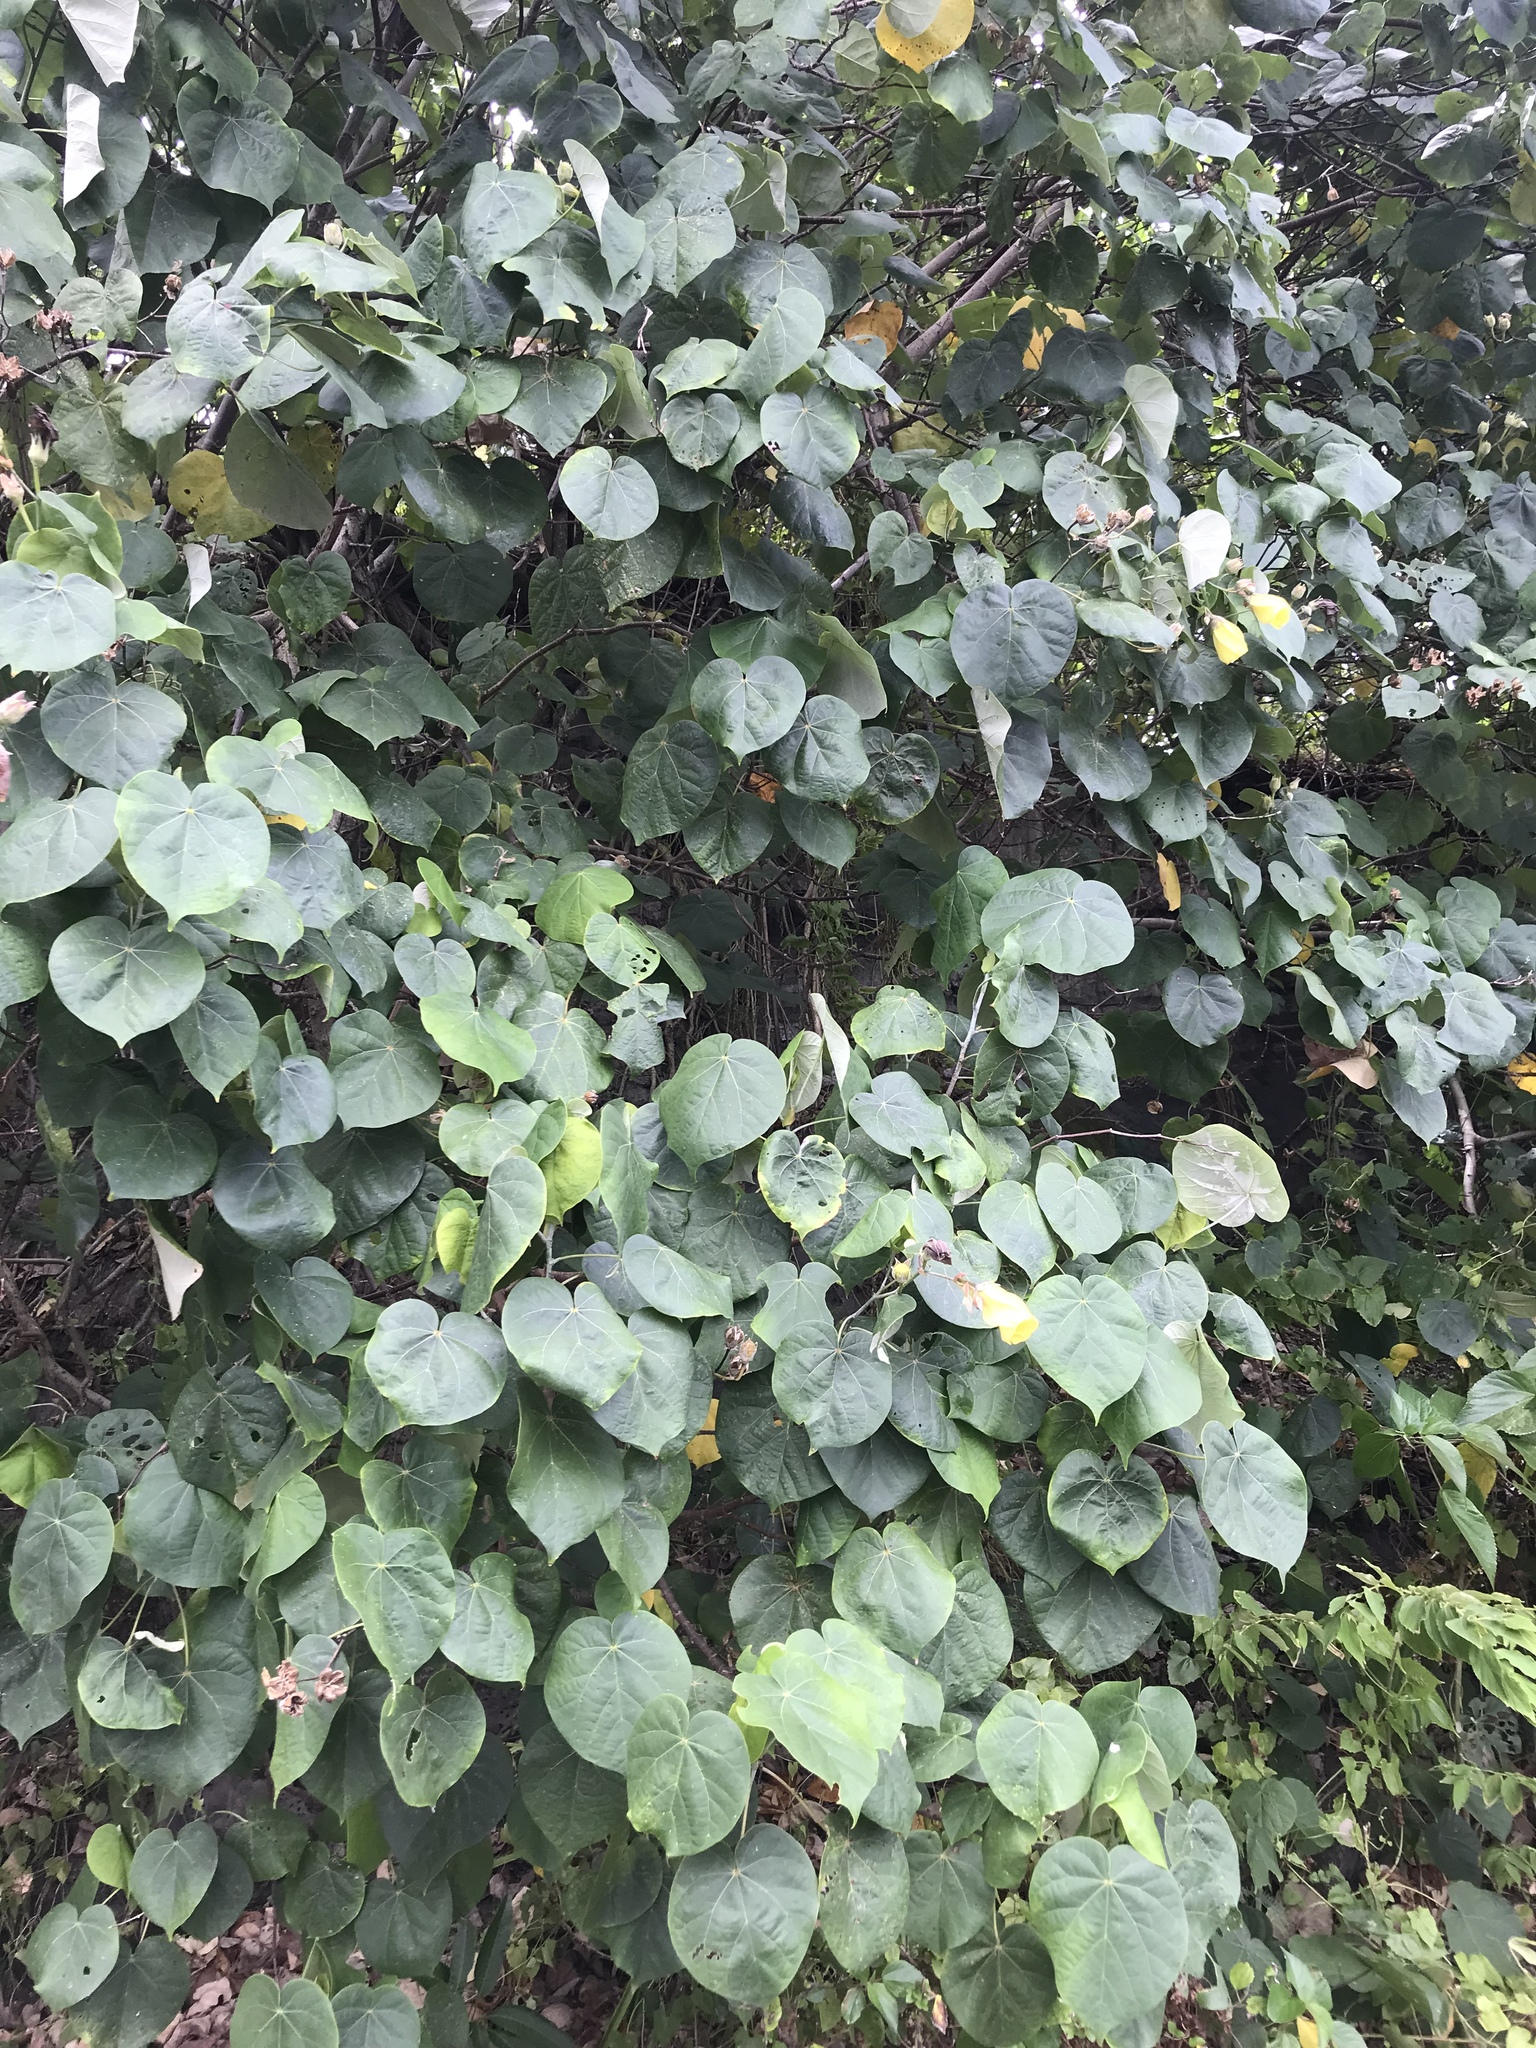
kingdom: Plantae
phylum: Tracheophyta
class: Magnoliopsida
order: Malvales
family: Malvaceae
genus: Talipariti
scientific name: Talipariti tiliaceum
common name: Sea hibiscus
